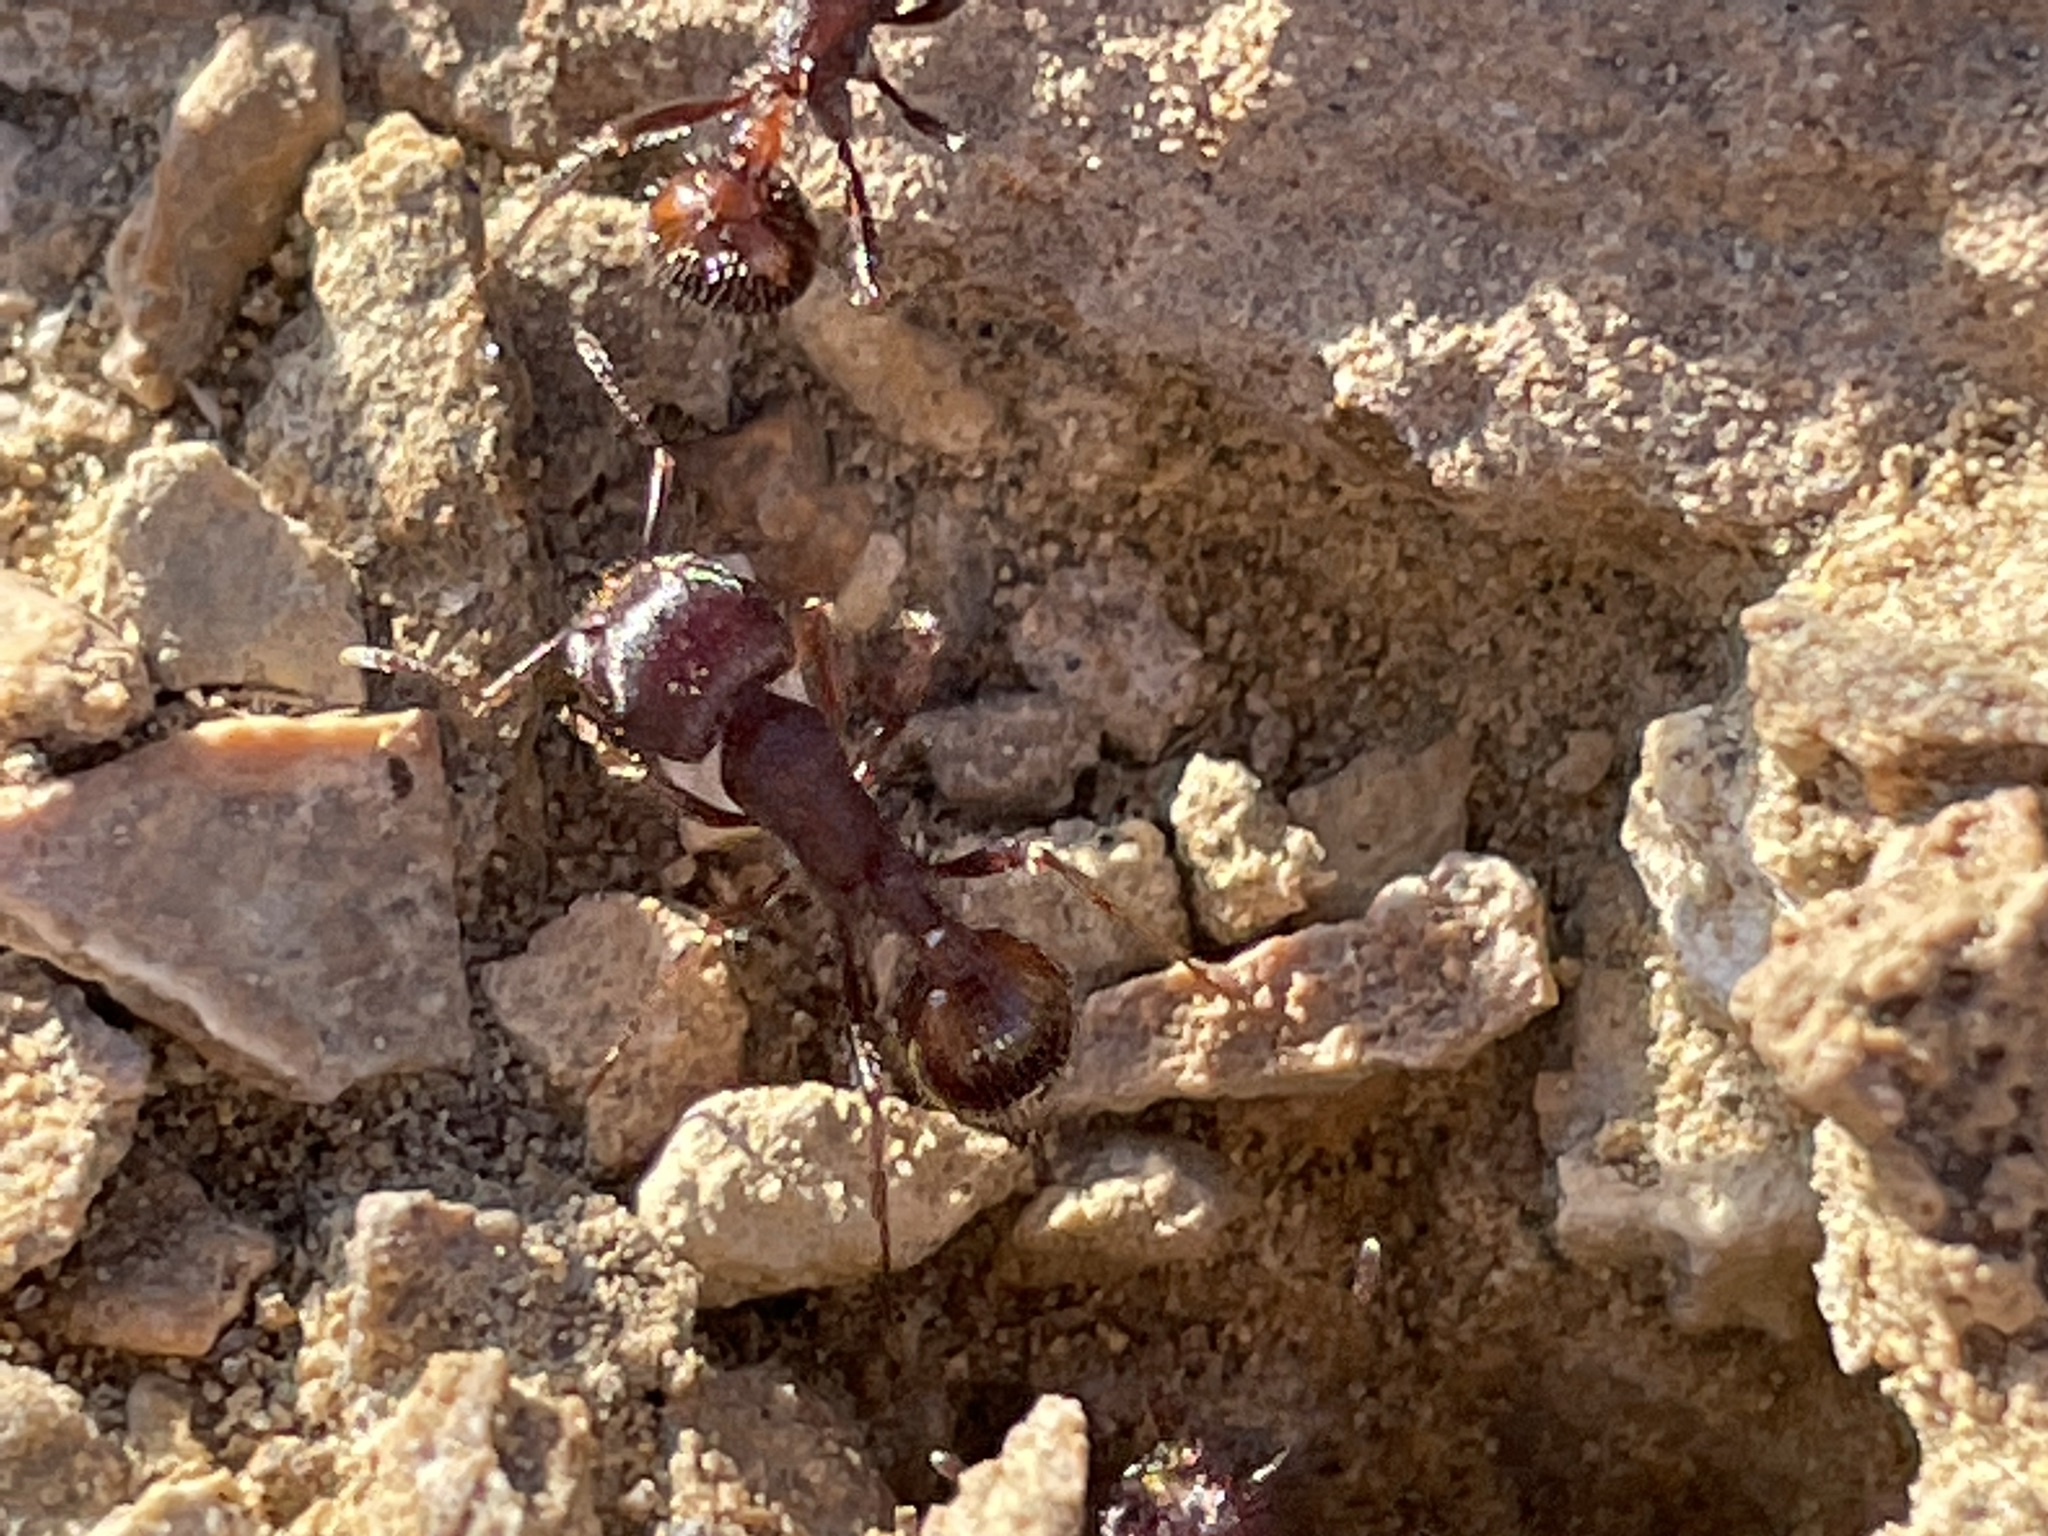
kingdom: Animalia
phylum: Arthropoda
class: Insecta
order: Hymenoptera
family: Formicidae
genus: Pogonomyrmex
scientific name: Pogonomyrmex rugosus
